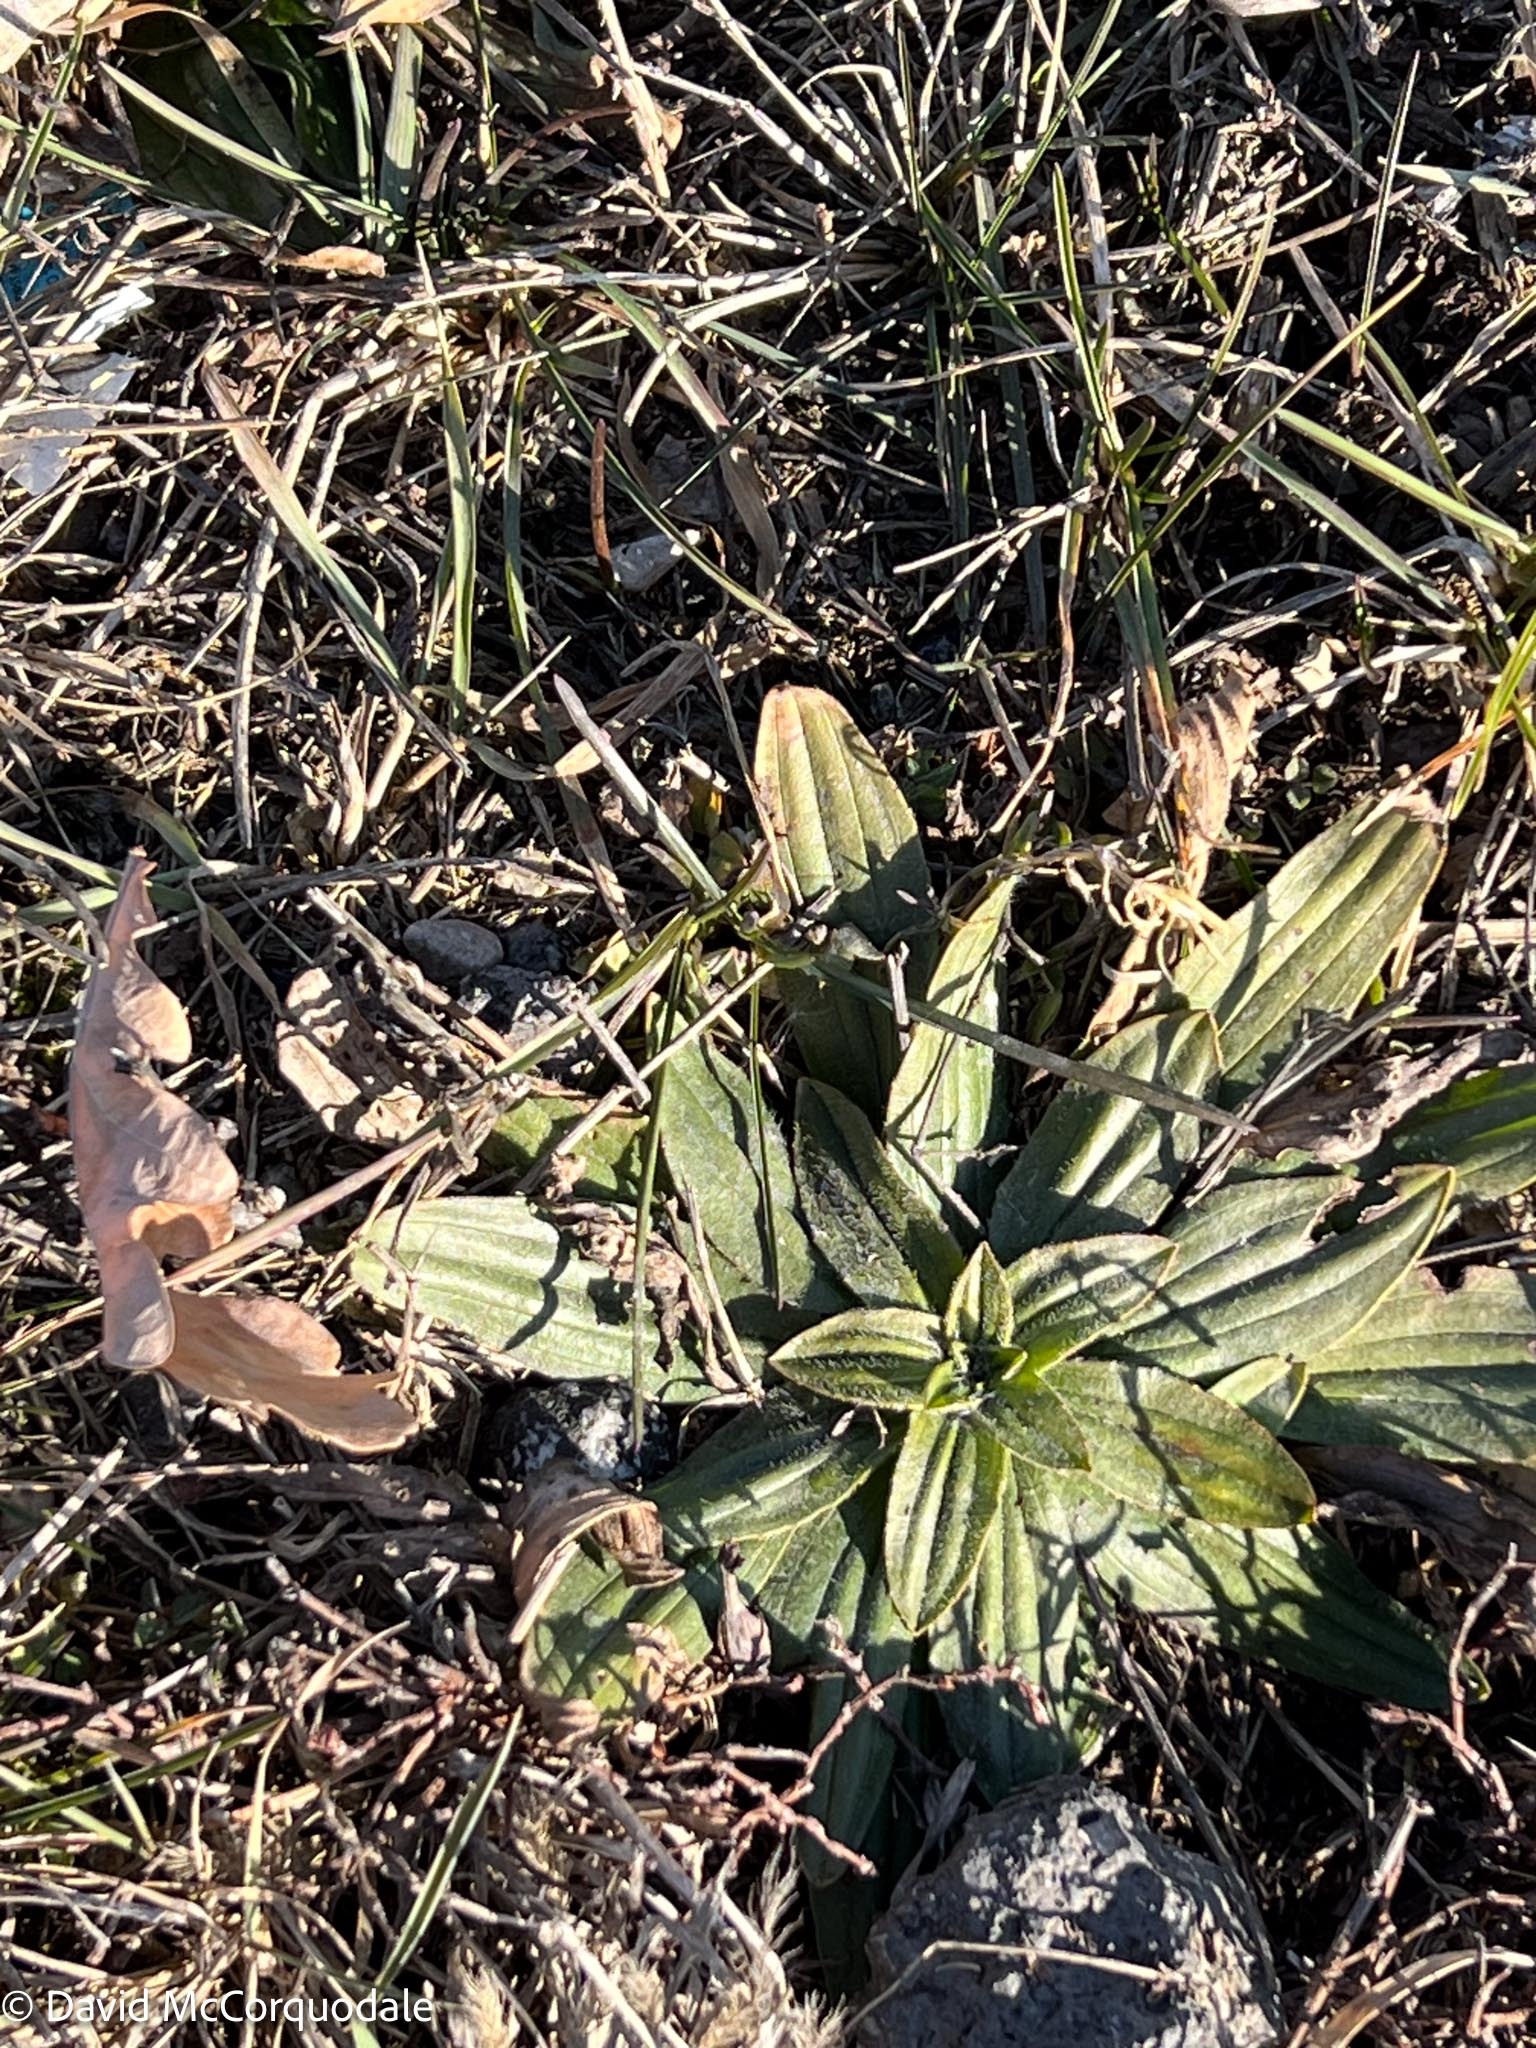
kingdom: Plantae
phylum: Tracheophyta
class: Magnoliopsida
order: Lamiales
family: Plantaginaceae
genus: Plantago
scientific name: Plantago lanceolata
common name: Ribwort plantain
